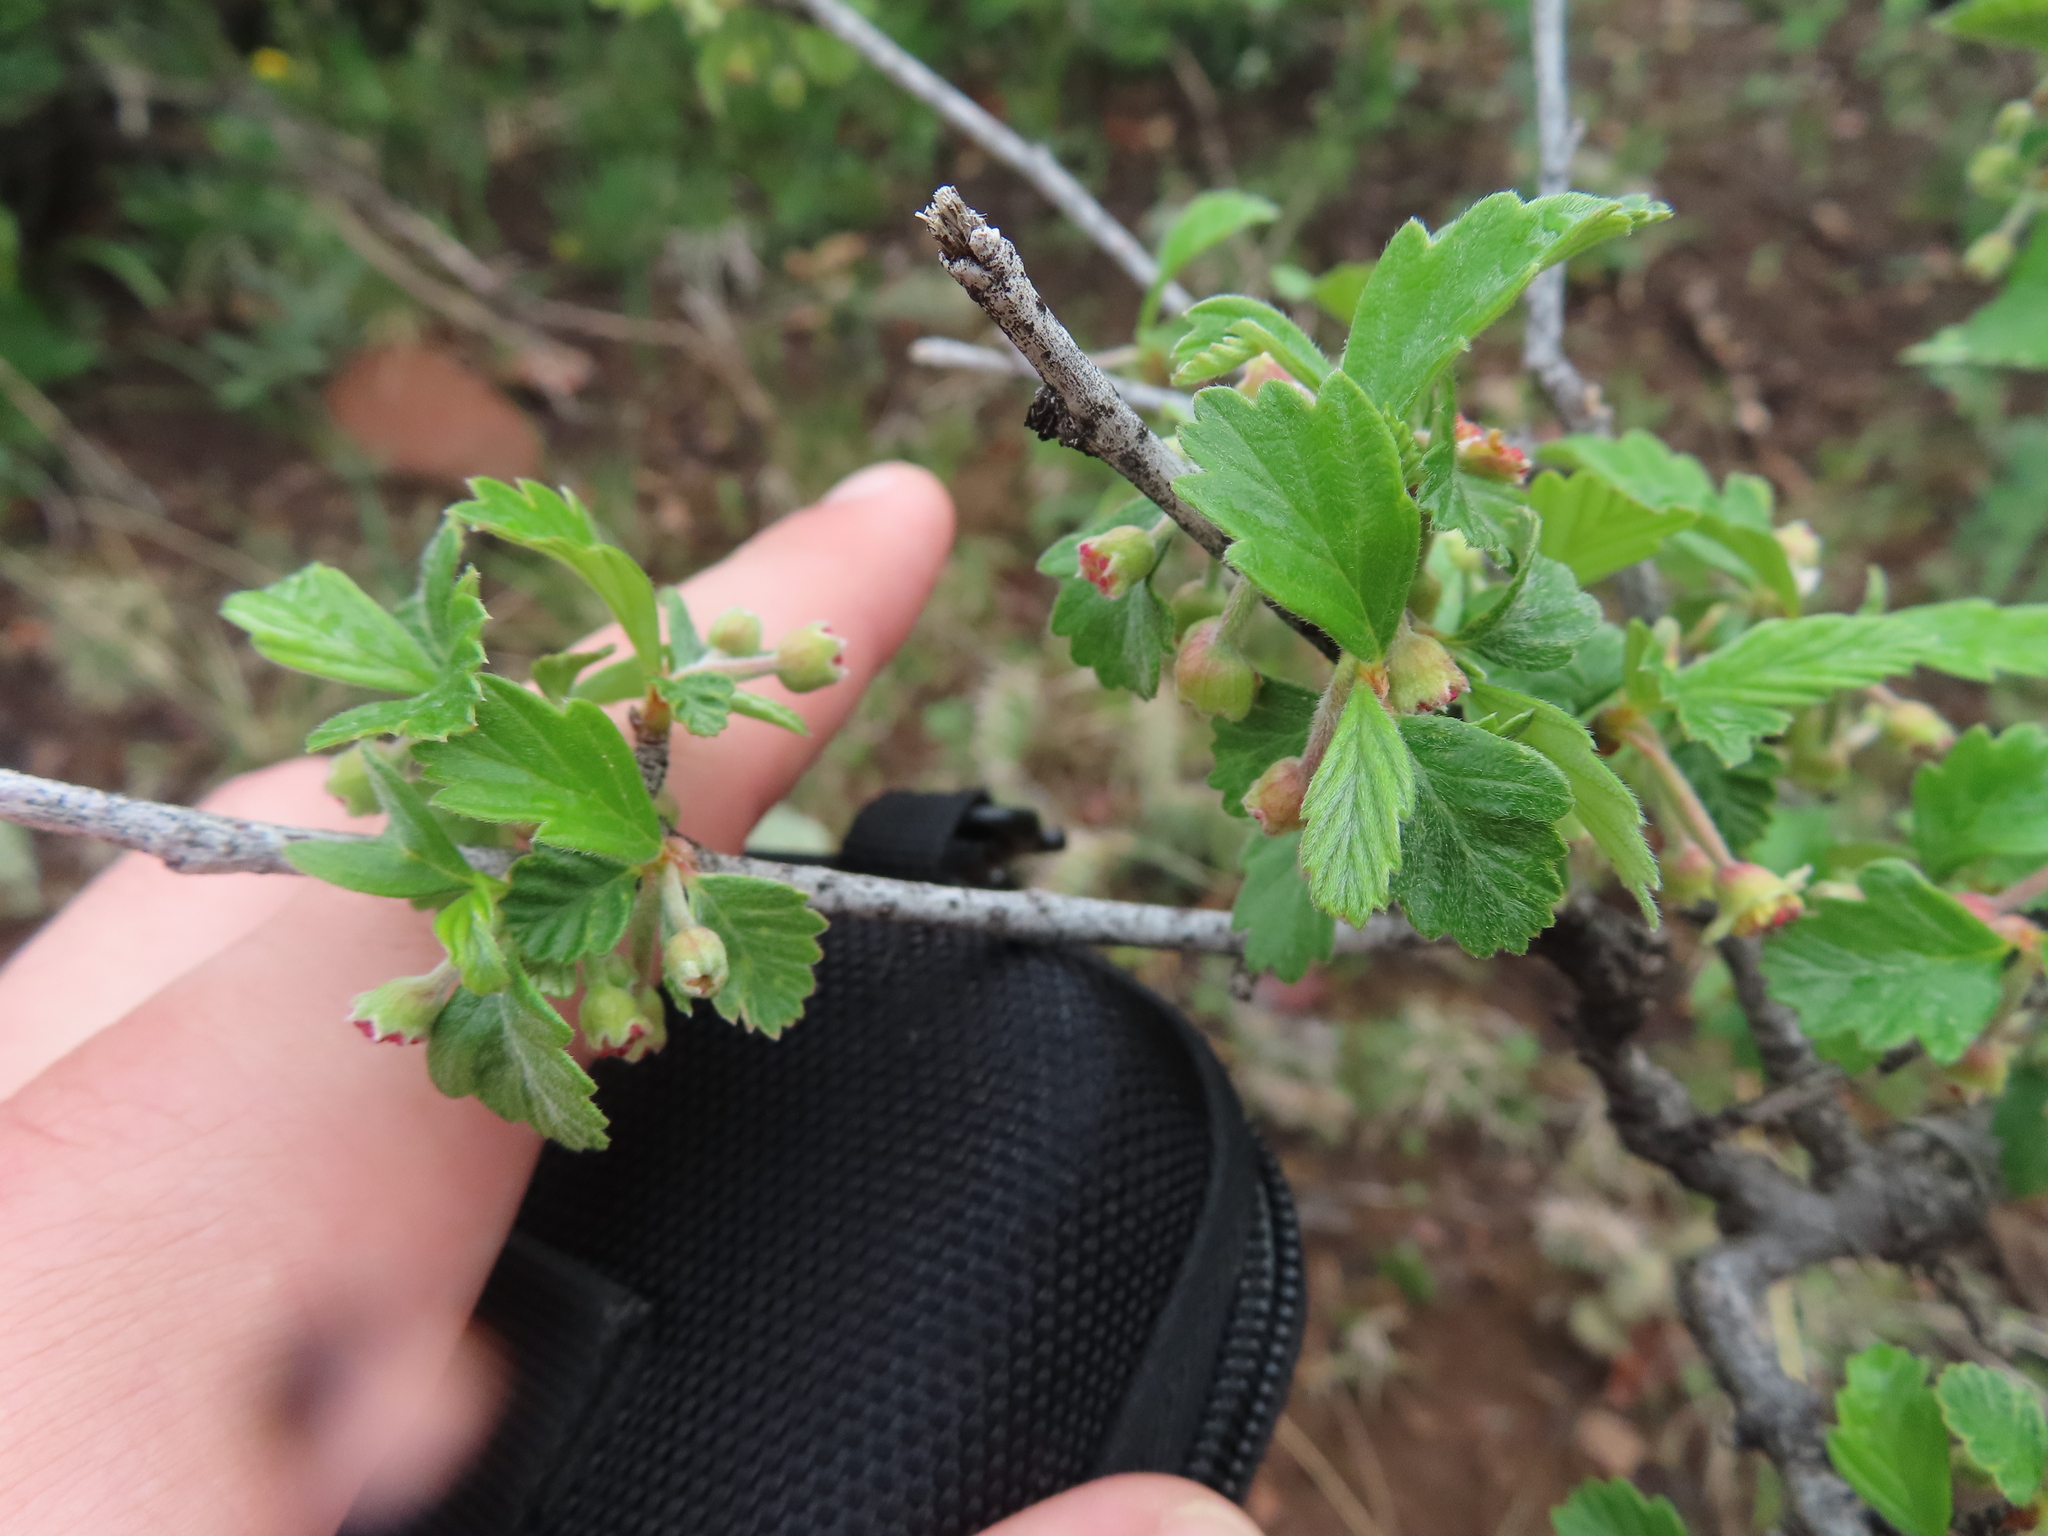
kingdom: Plantae
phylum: Tracheophyta
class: Magnoliopsida
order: Rosales
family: Rosaceae
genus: Cercocarpus
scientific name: Cercocarpus montanus
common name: Alder-leaf cercocarpus
